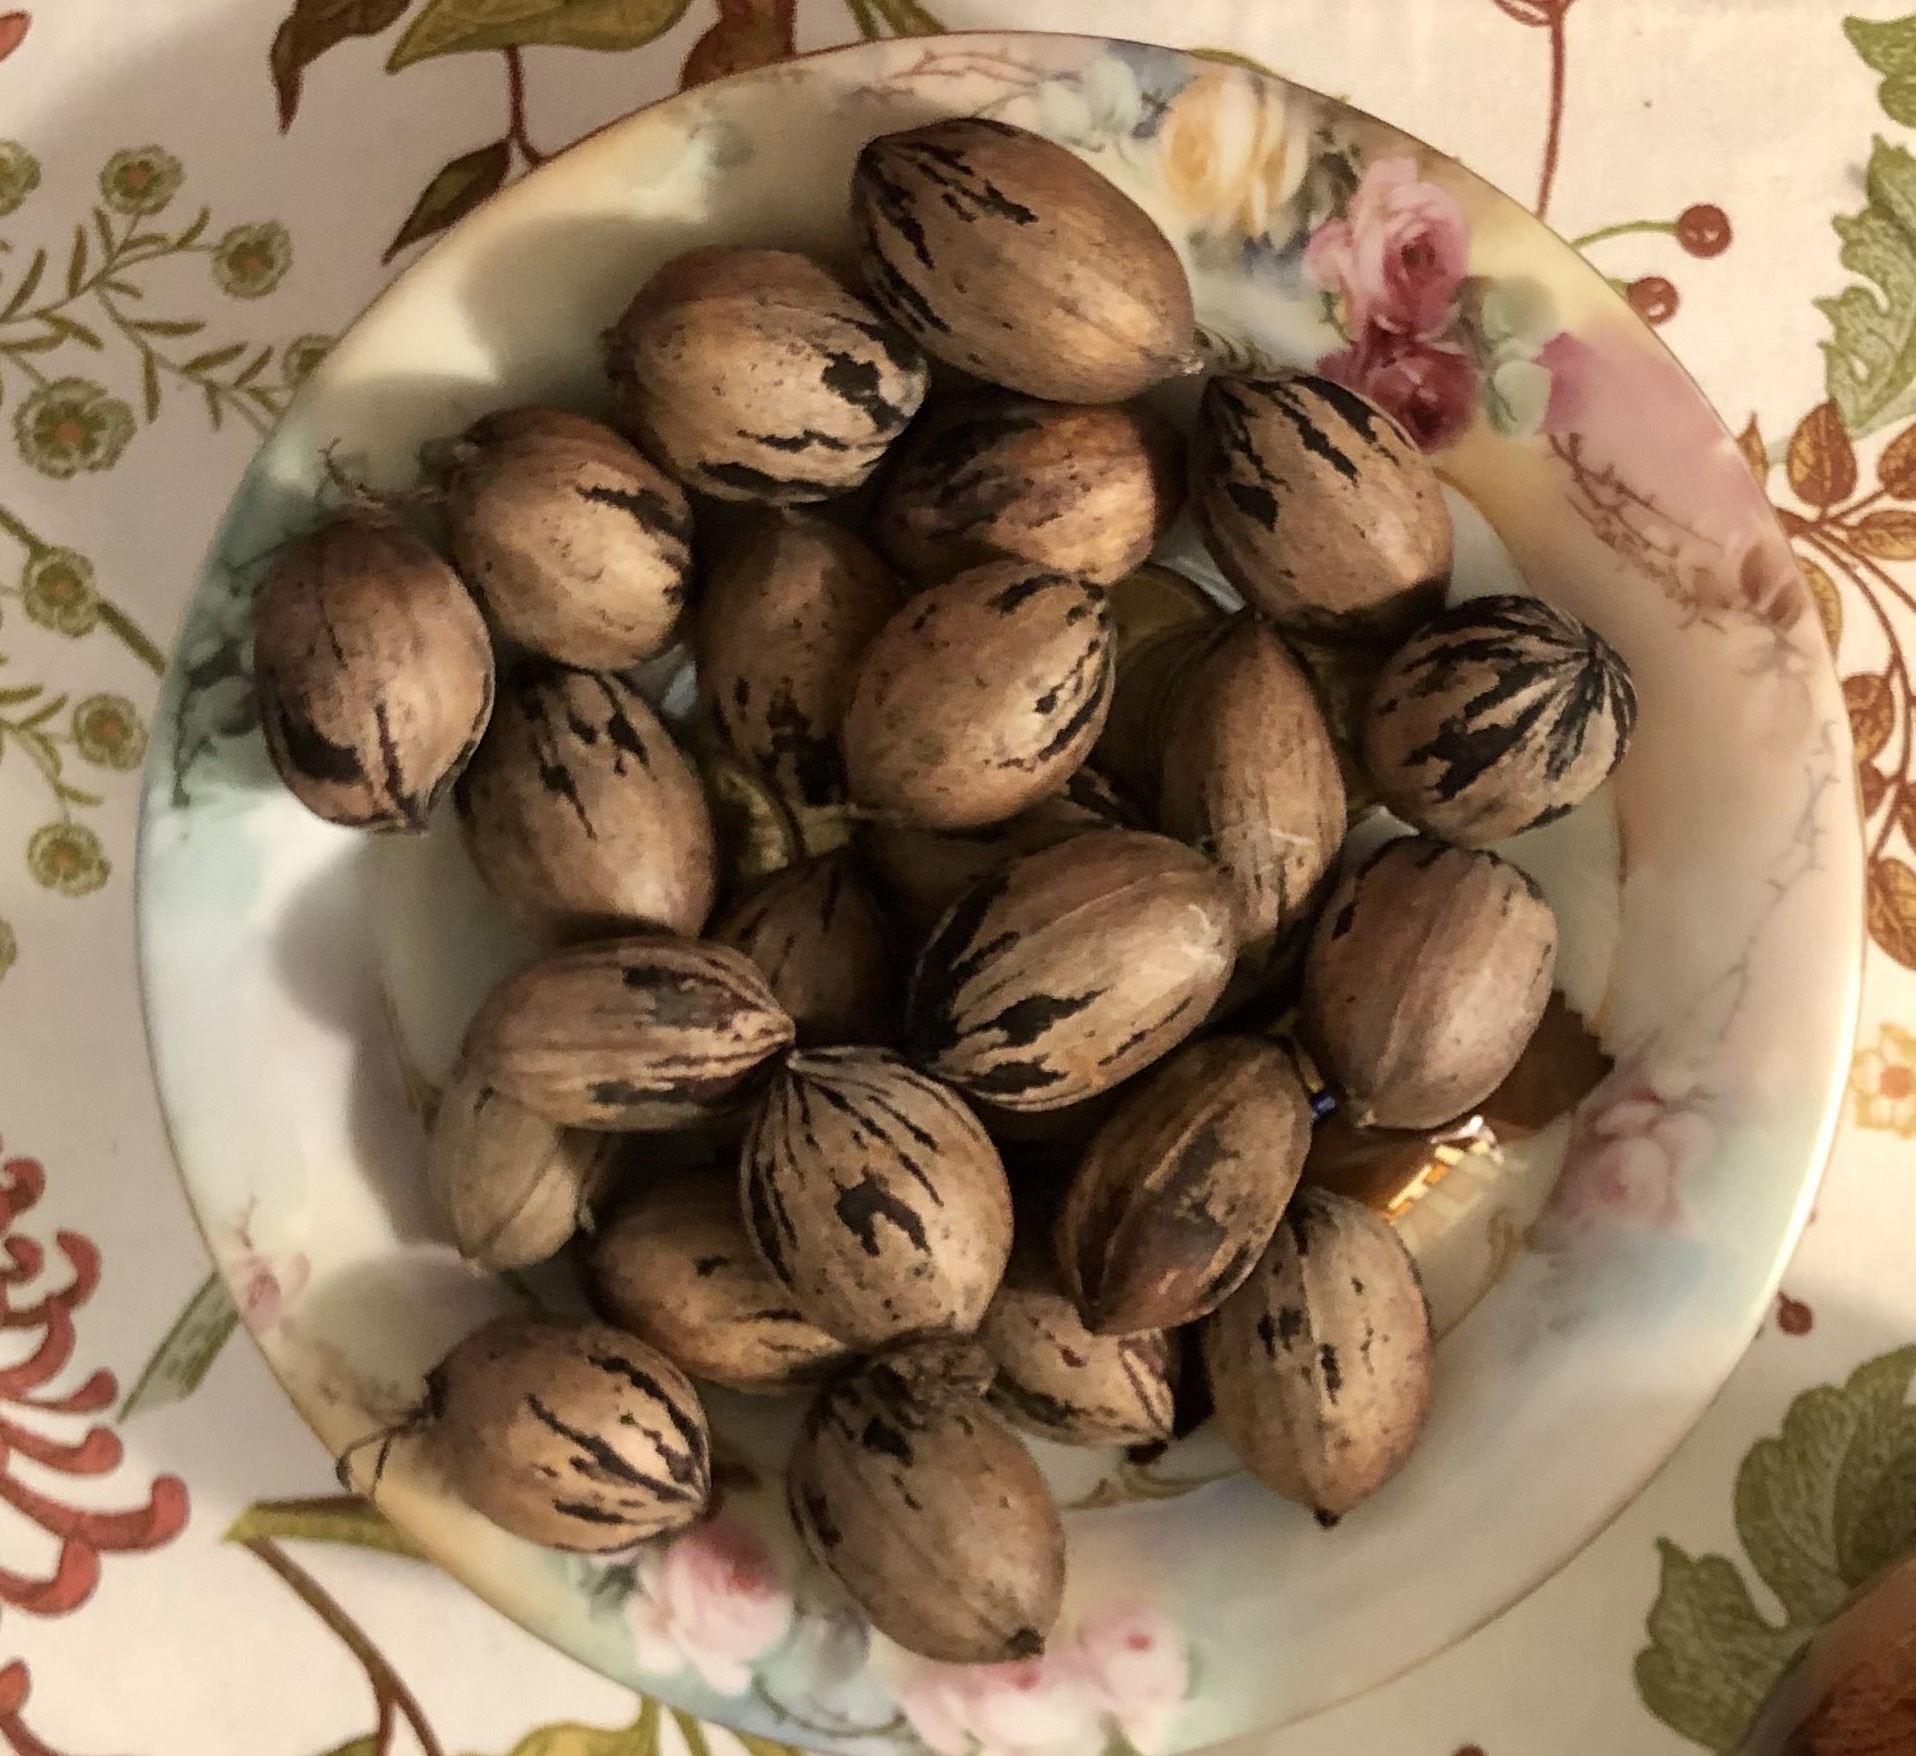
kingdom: Plantae
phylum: Tracheophyta
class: Magnoliopsida
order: Fagales
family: Juglandaceae
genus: Carya
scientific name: Carya illinoinensis
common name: Pecan
